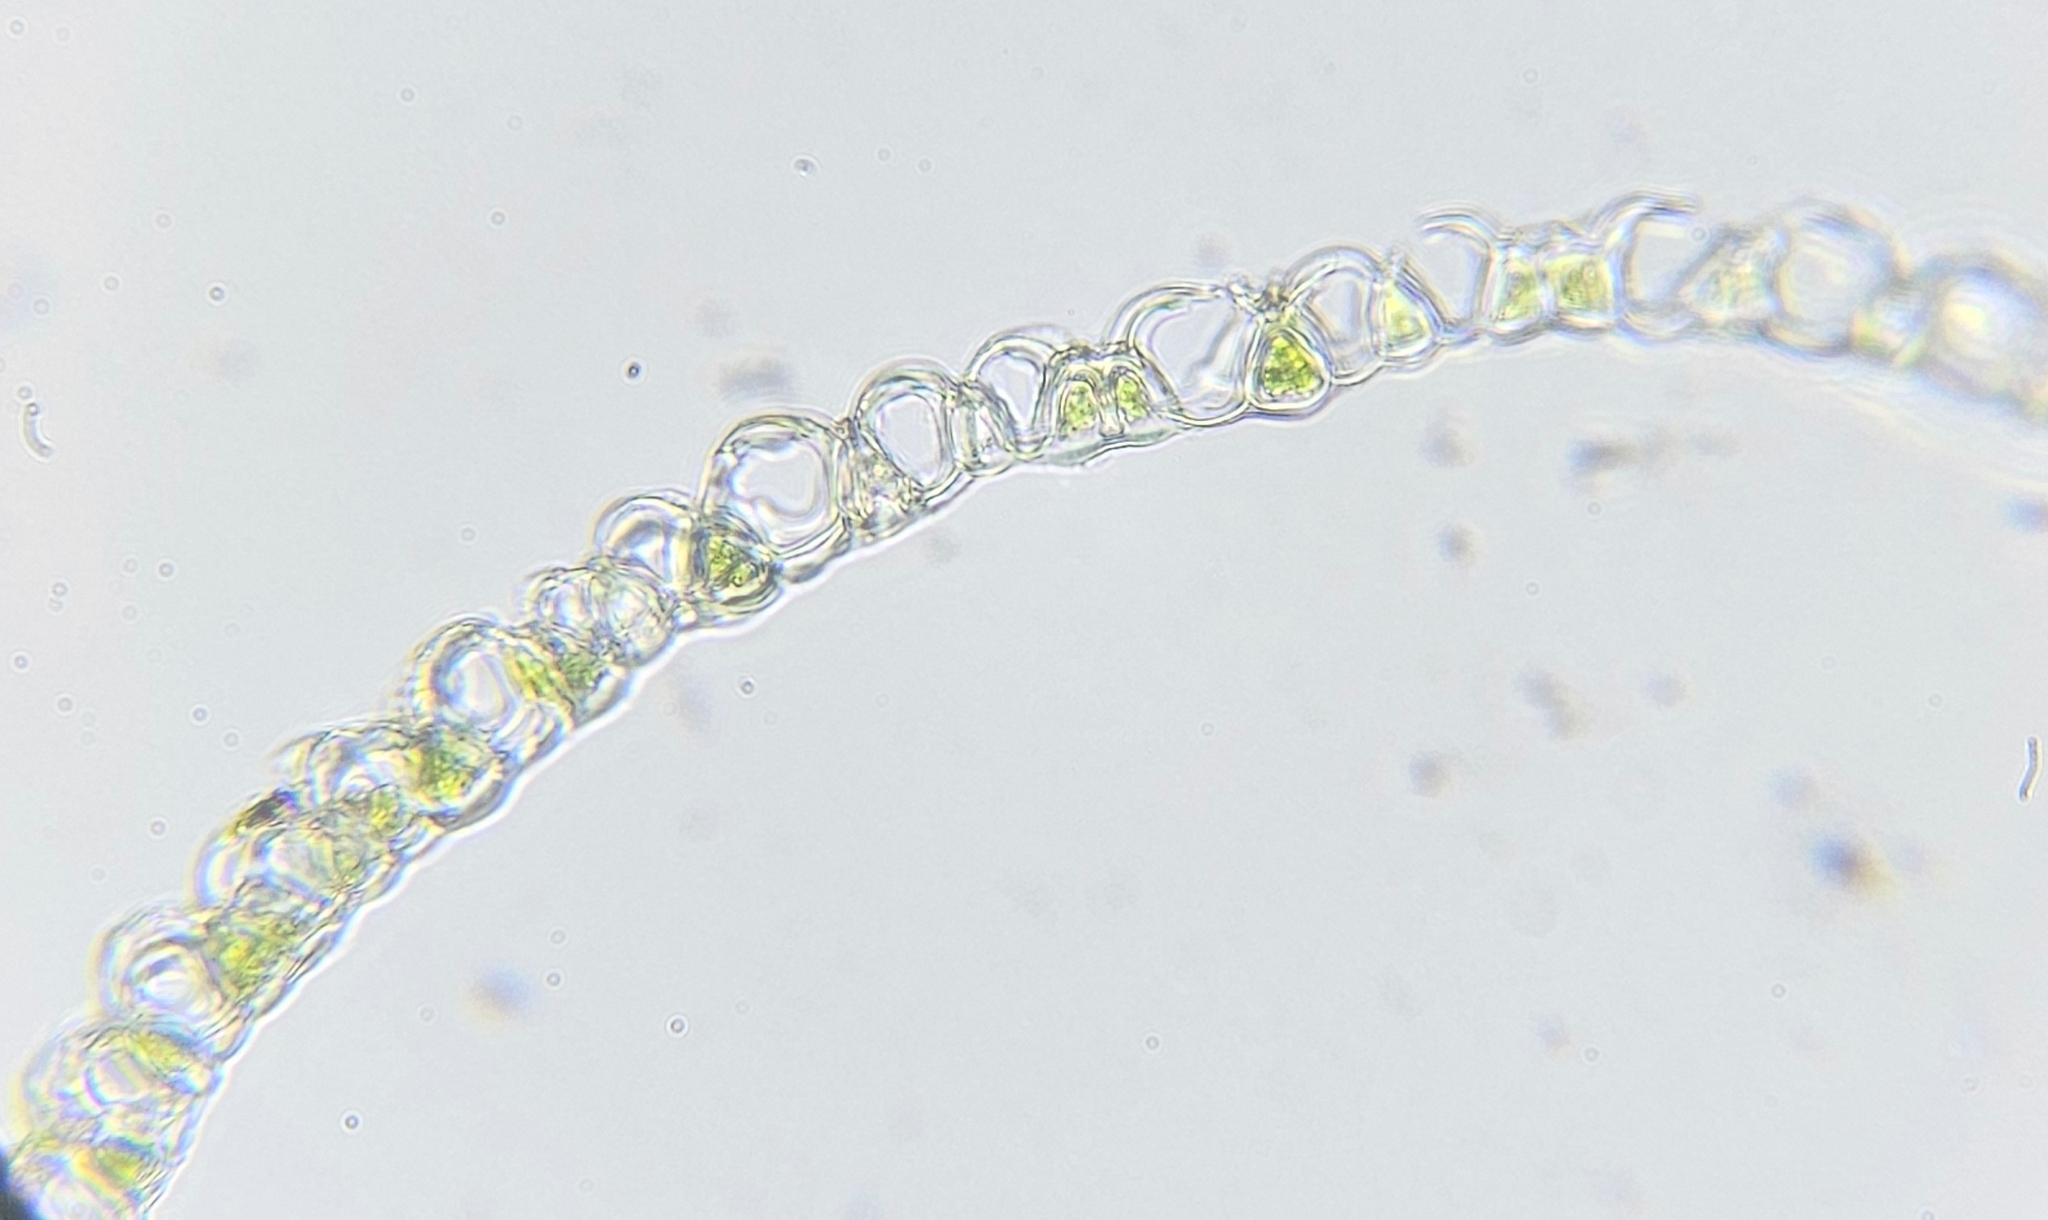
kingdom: Plantae
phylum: Bryophyta
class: Sphagnopsida
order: Sphagnales
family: Sphagnaceae
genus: Sphagnum
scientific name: Sphagnum russowii
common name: Russow's peat moss
